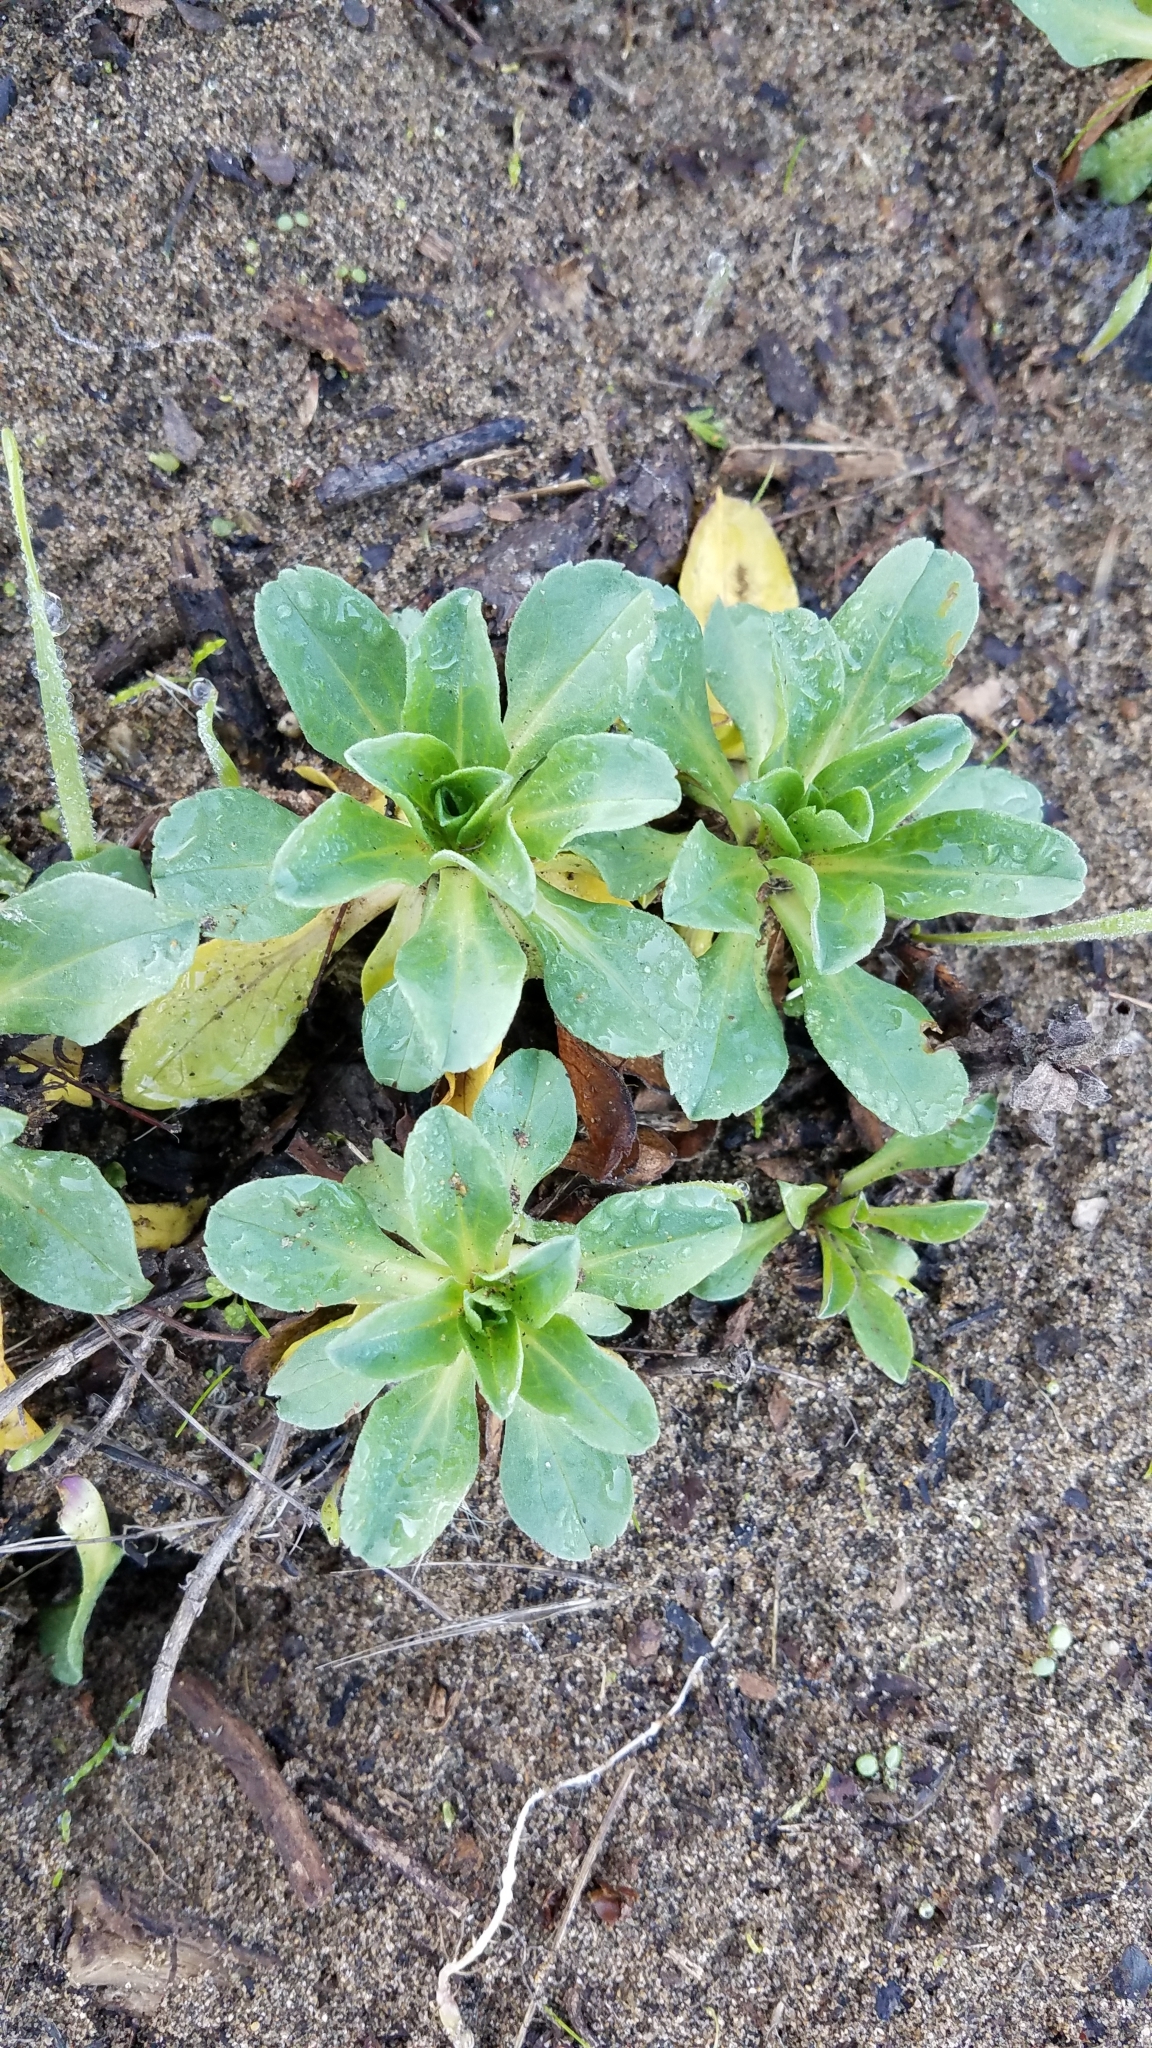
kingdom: Plantae
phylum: Tracheophyta
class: Magnoliopsida
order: Asterales
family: Asteraceae
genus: Erigeron
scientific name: Erigeron glaucus
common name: Seaside daisy
